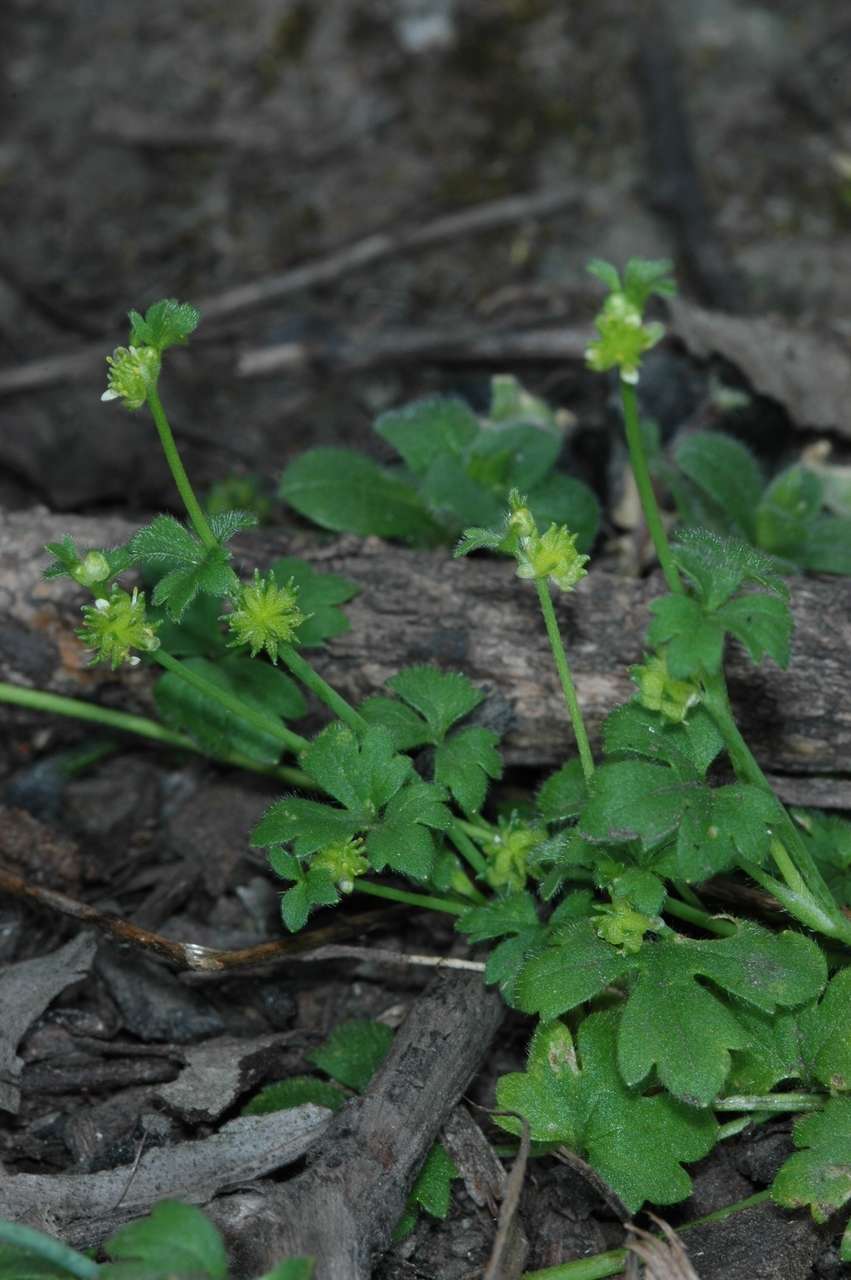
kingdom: Plantae
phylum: Tracheophyta
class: Magnoliopsida
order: Ranunculales
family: Ranunculaceae
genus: Ranunculus
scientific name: Ranunculus sessiliflorus
